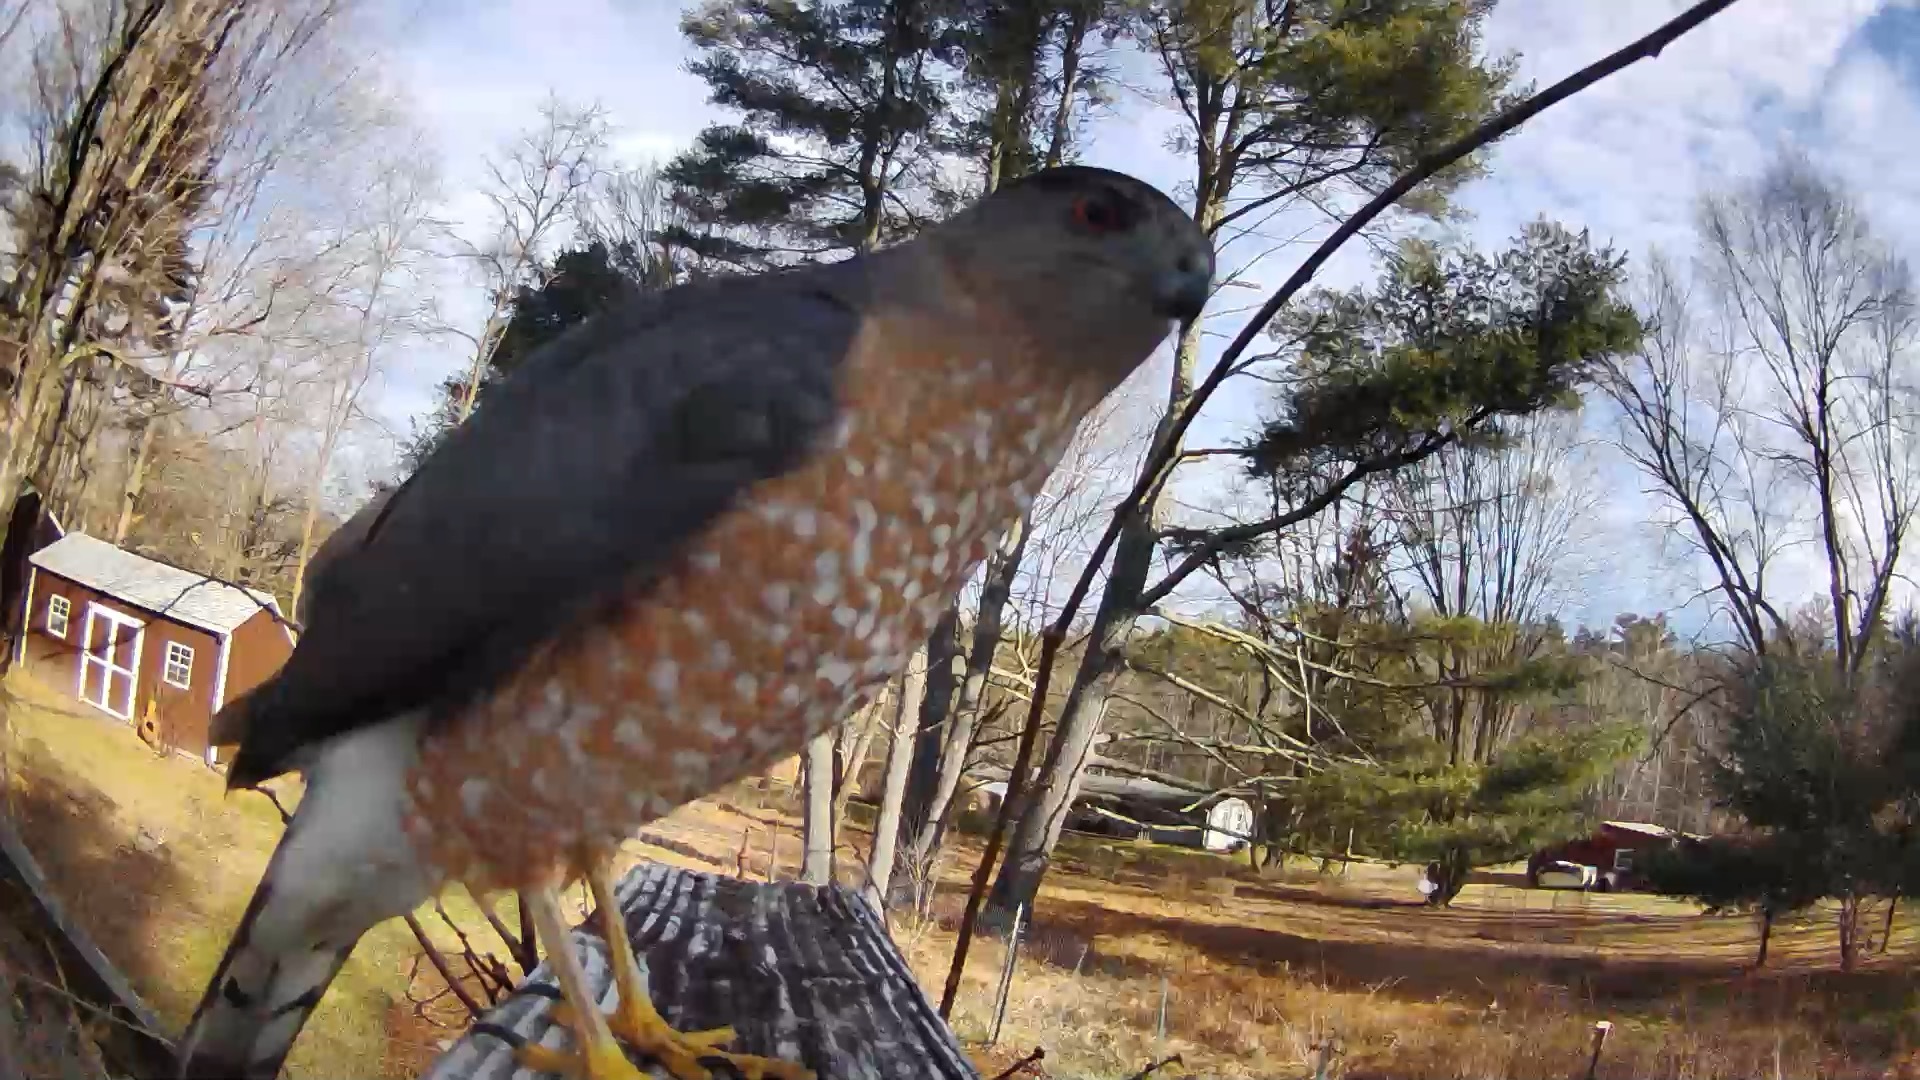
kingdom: Animalia
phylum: Chordata
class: Aves
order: Accipitriformes
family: Accipitridae
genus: Accipiter
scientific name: Accipiter cooperii
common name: Cooper's hawk
